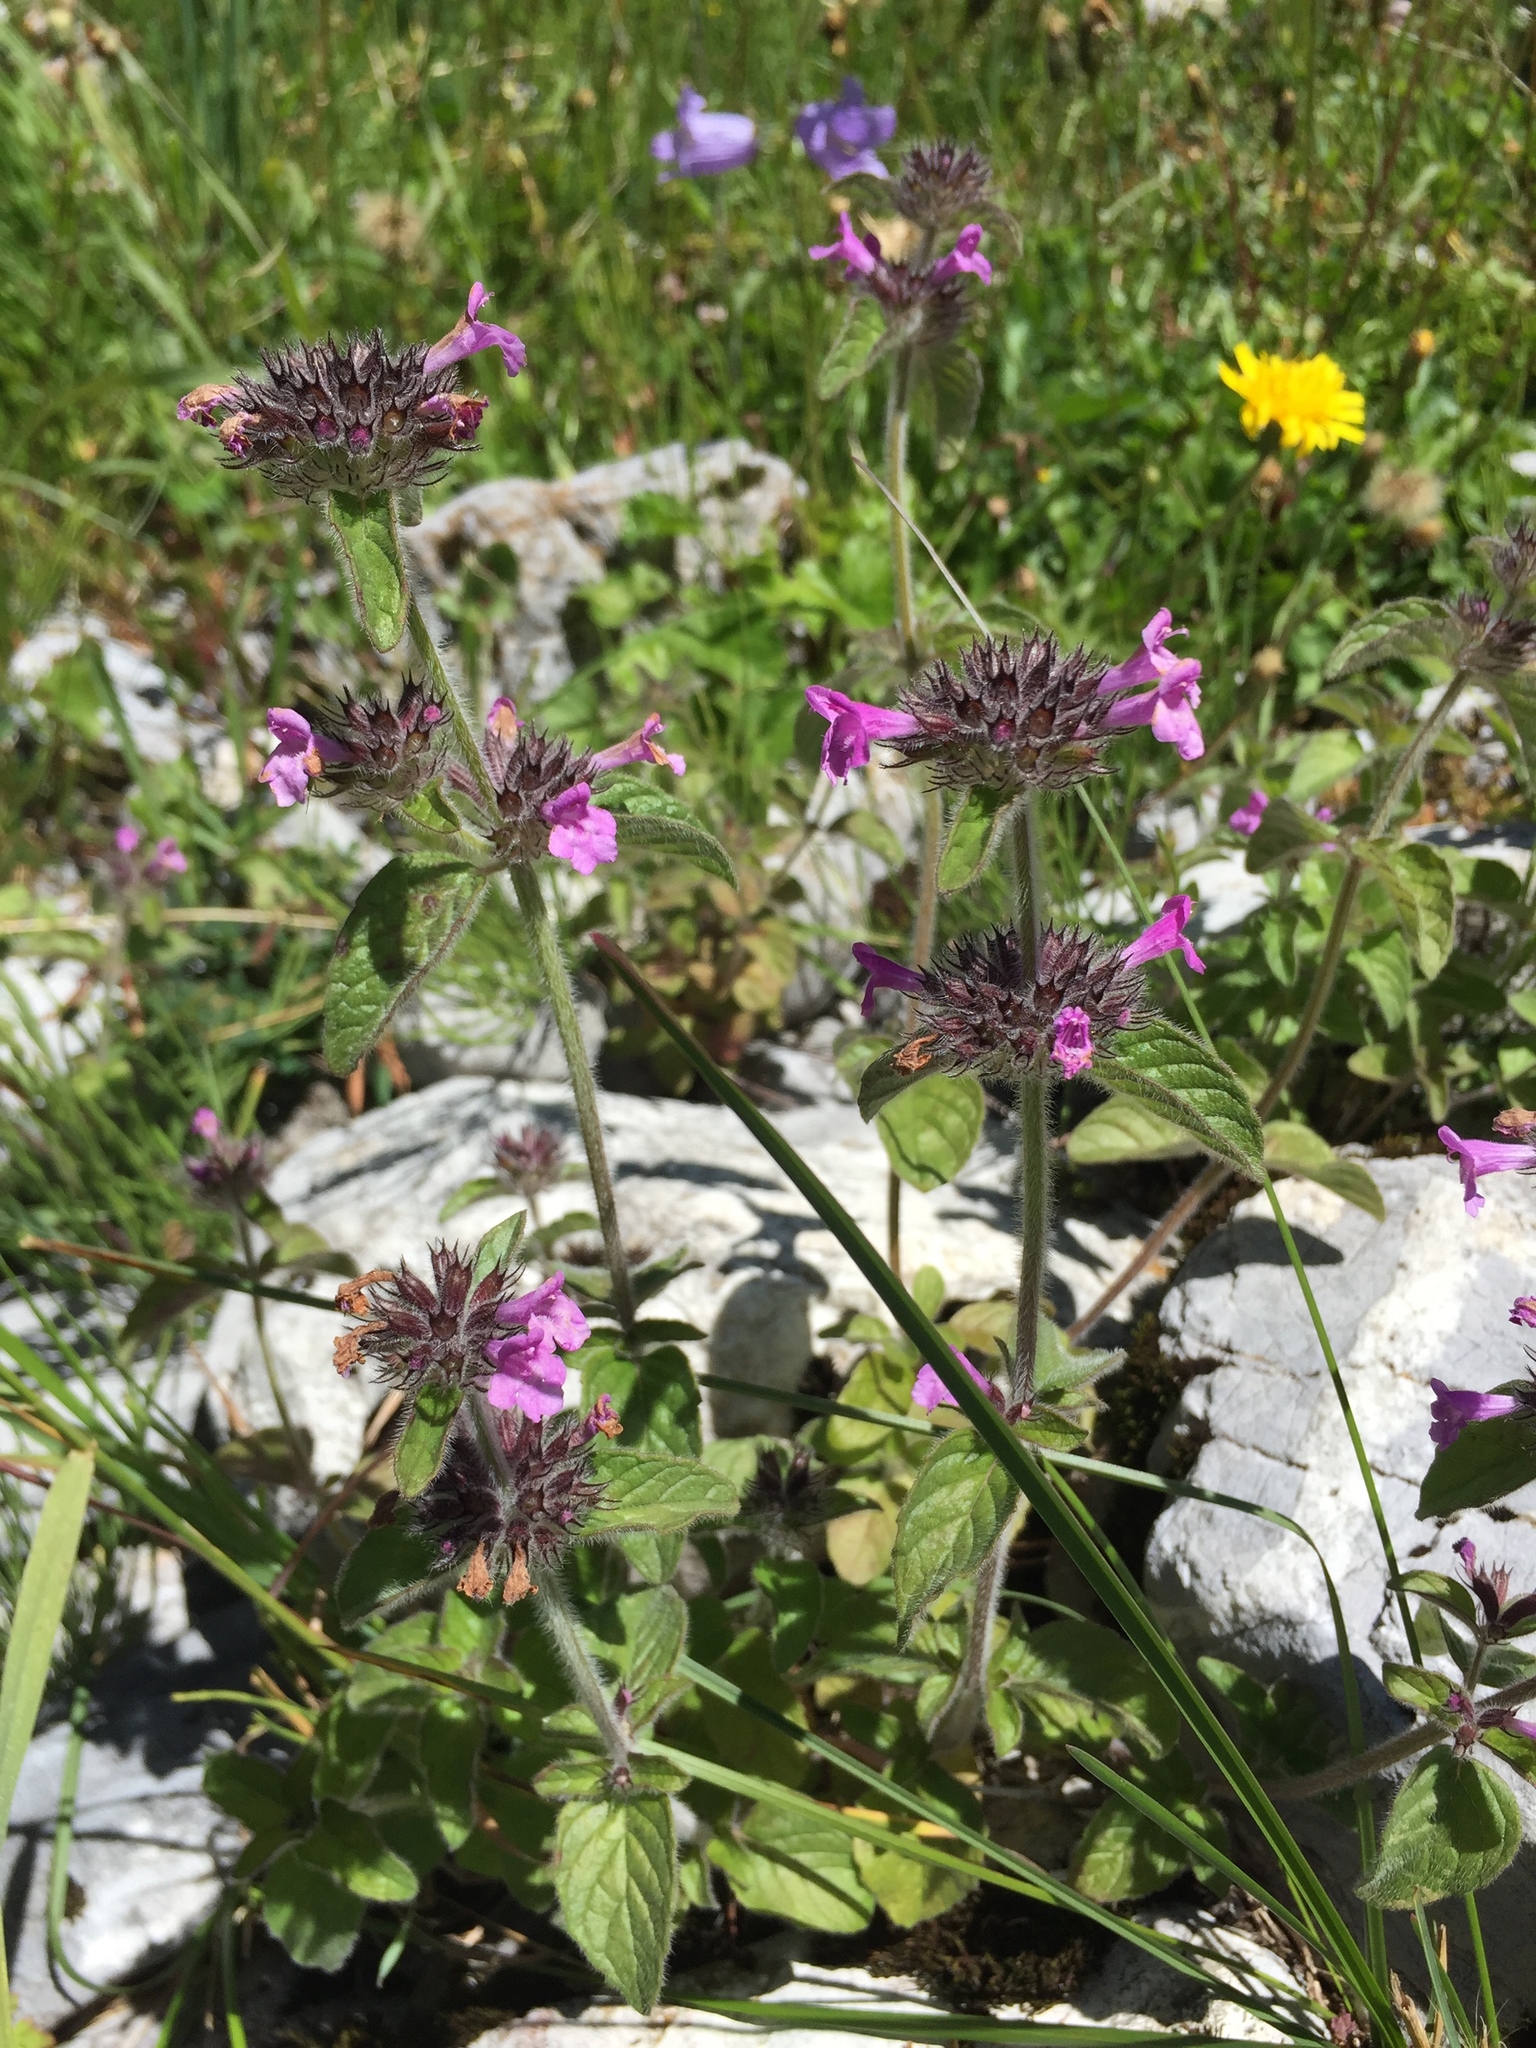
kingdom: Plantae
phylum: Tracheophyta
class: Magnoliopsida
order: Lamiales
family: Lamiaceae
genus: Clinopodium
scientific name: Clinopodium vulgare
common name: Wild basil
